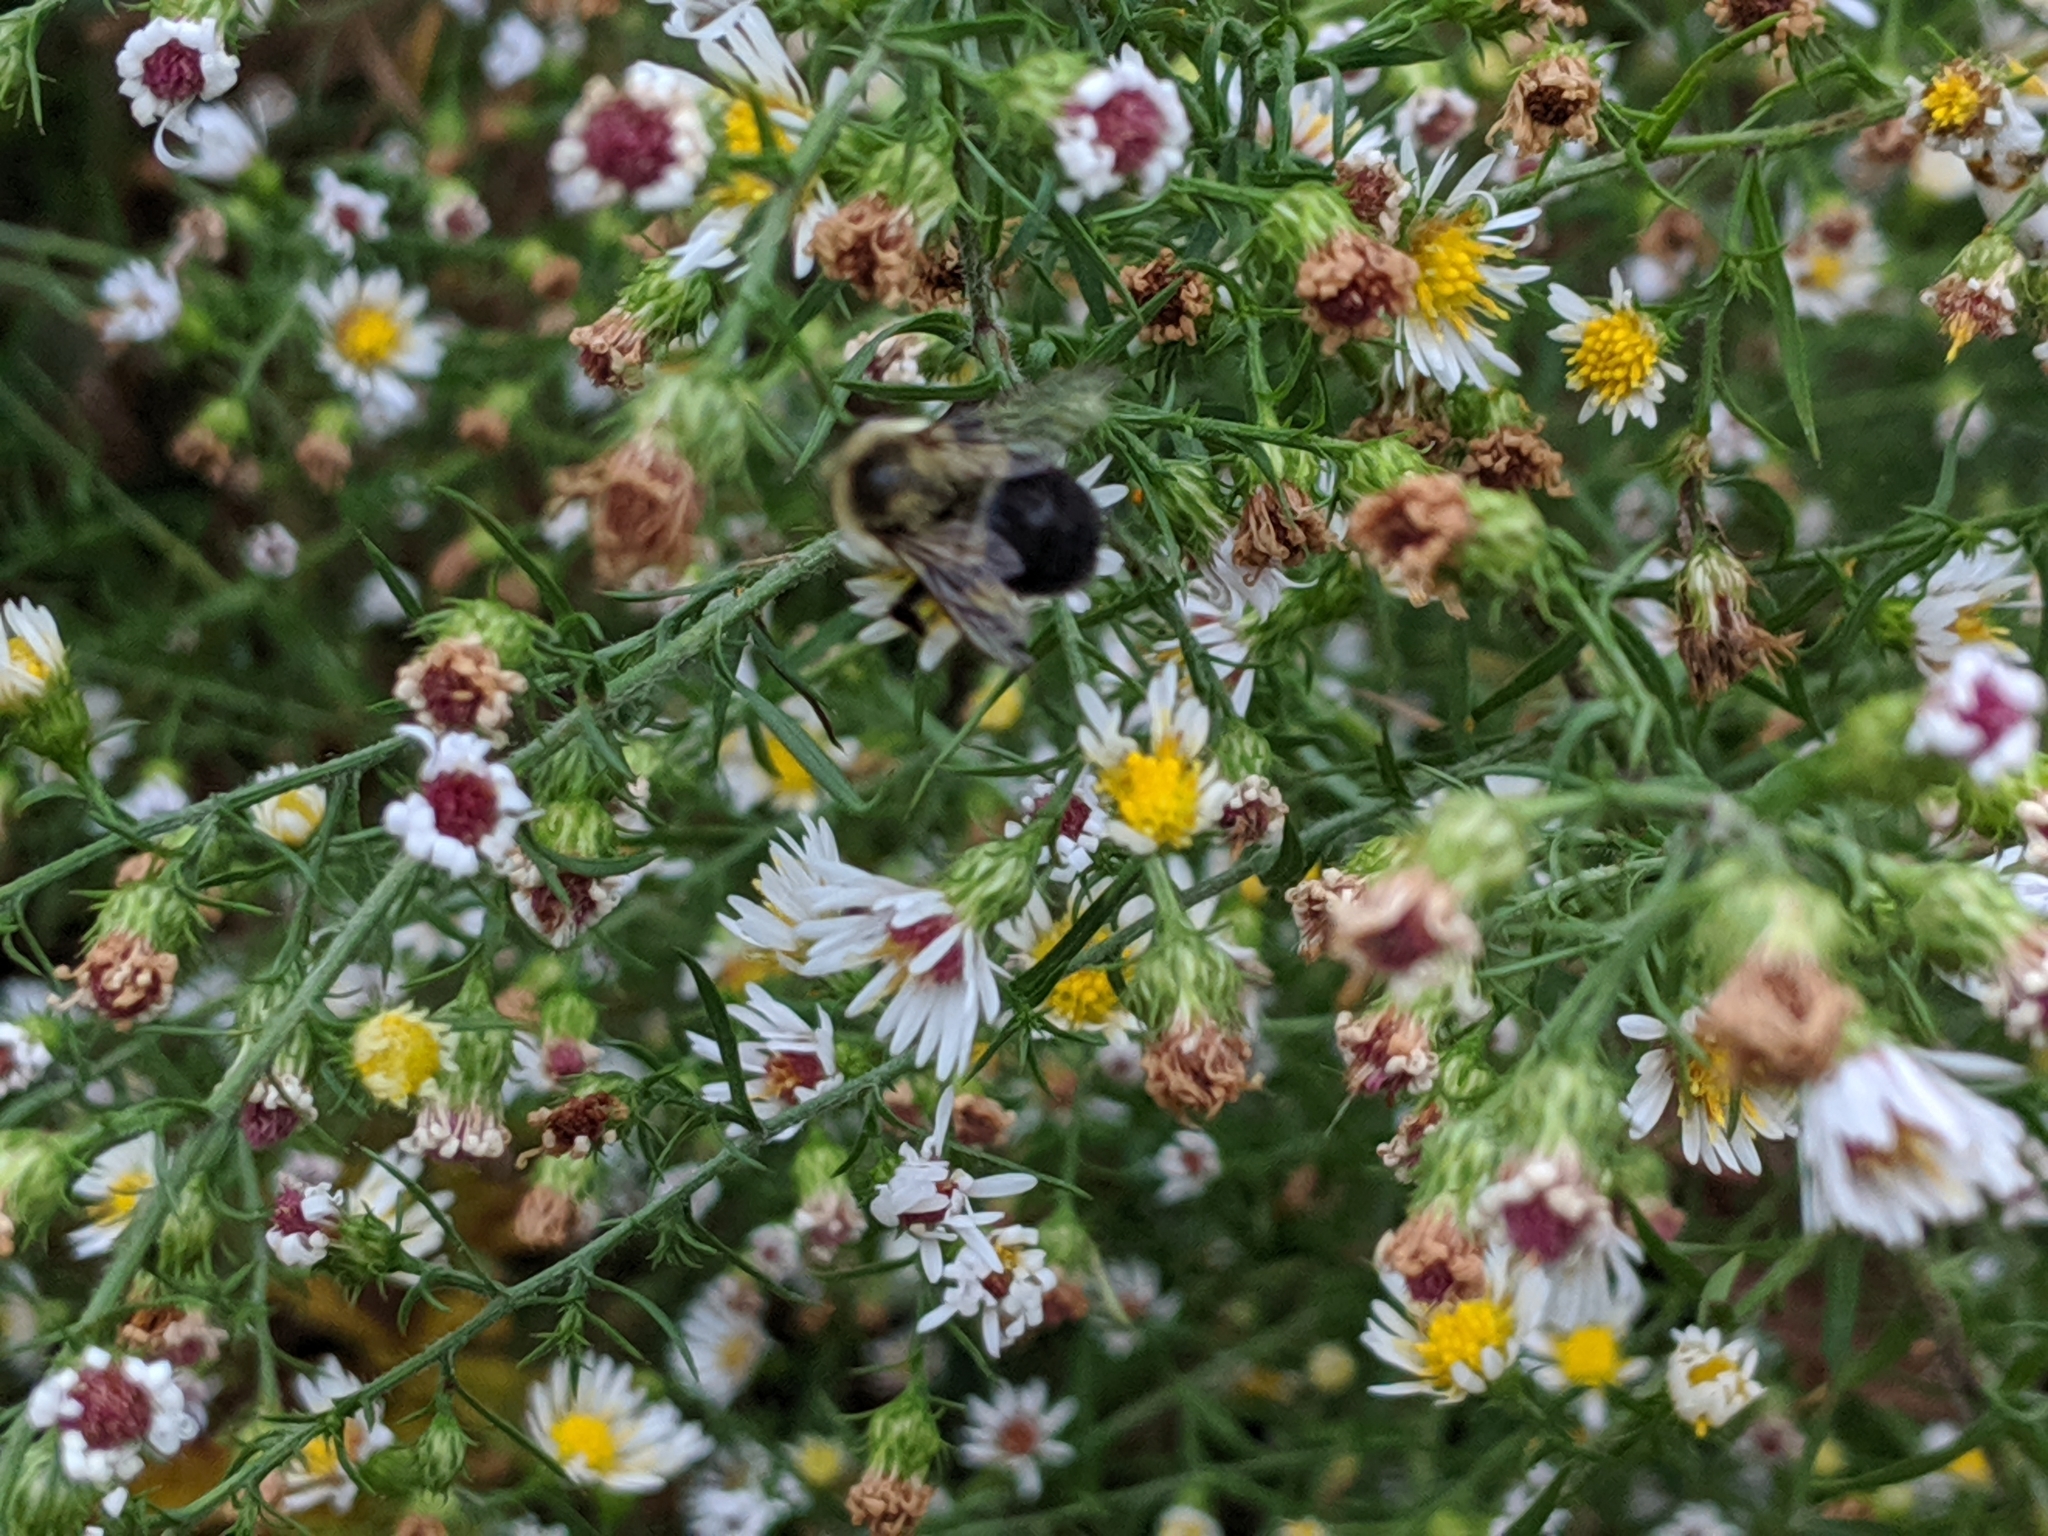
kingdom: Animalia
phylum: Arthropoda
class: Insecta
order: Hymenoptera
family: Apidae
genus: Bombus
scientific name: Bombus impatiens
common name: Common eastern bumble bee
